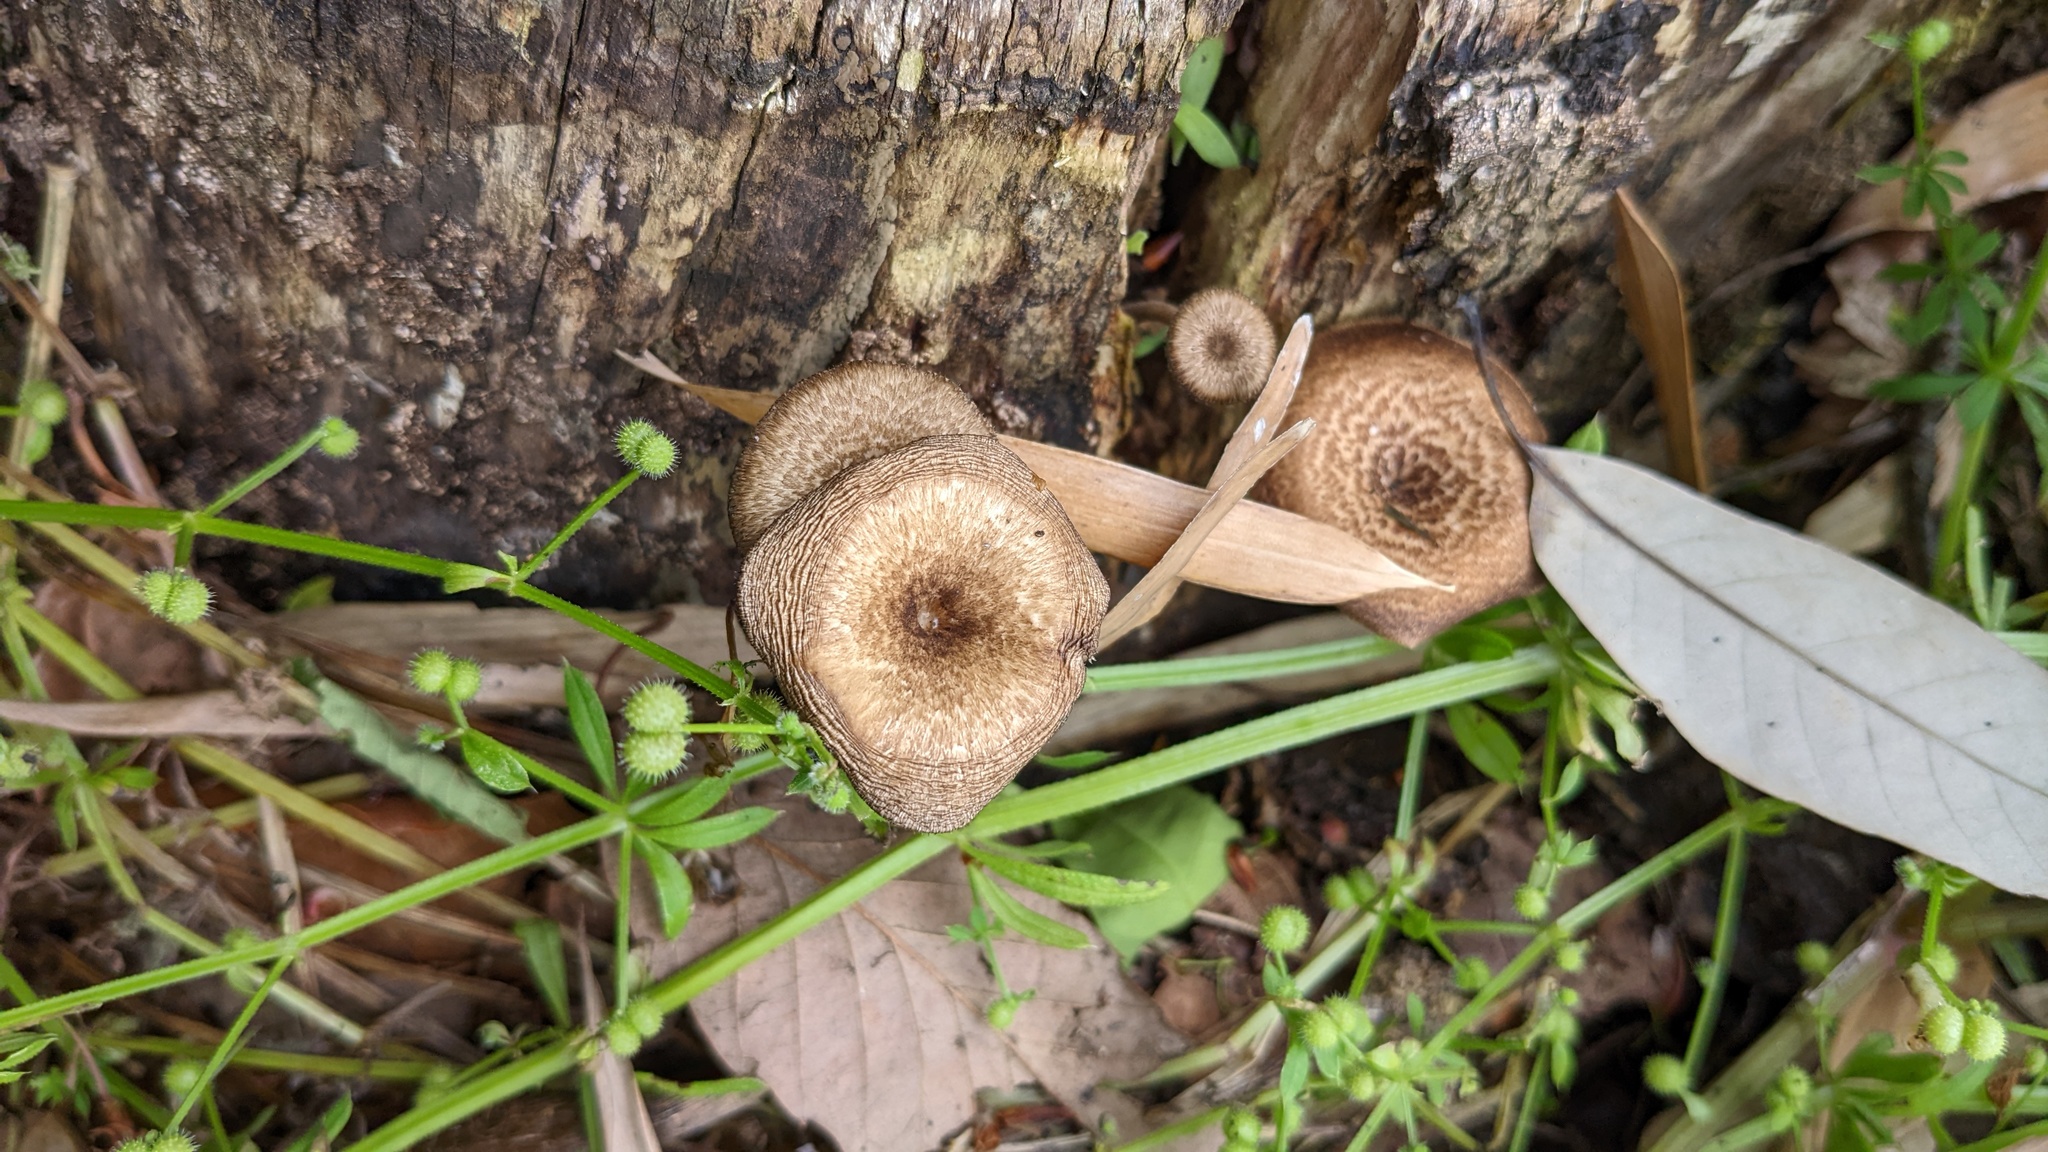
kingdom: Fungi
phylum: Basidiomycota
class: Agaricomycetes
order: Polyporales
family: Polyporaceae
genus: Lentinus
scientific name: Lentinus arcularius
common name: Spring polypore
